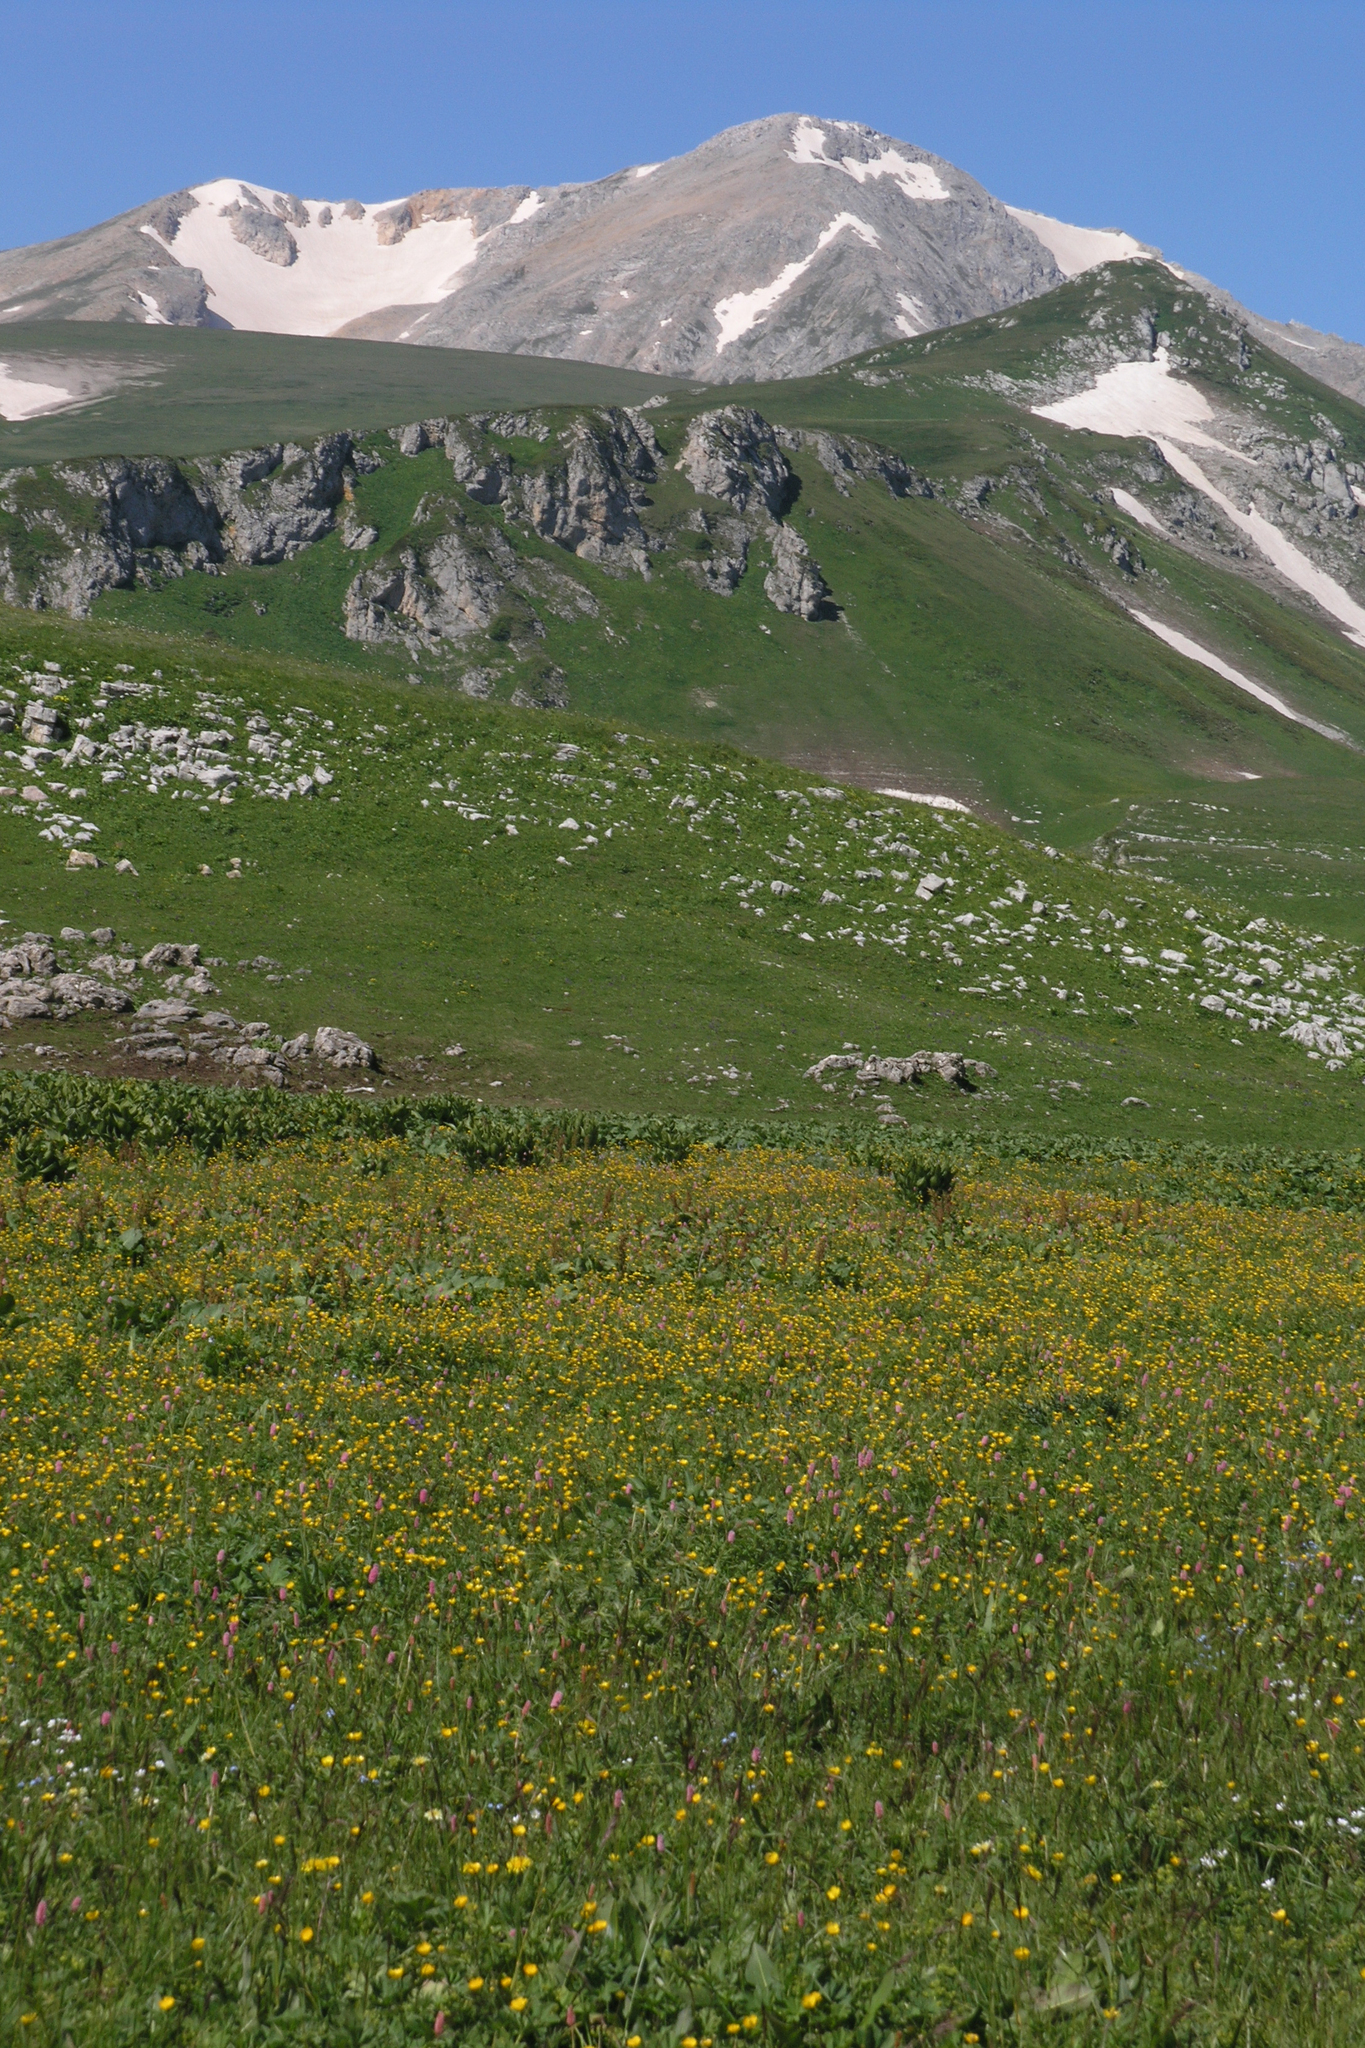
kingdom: Plantae
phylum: Tracheophyta
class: Liliopsida
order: Liliales
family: Melanthiaceae
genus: Veratrum
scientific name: Veratrum lobelianum
